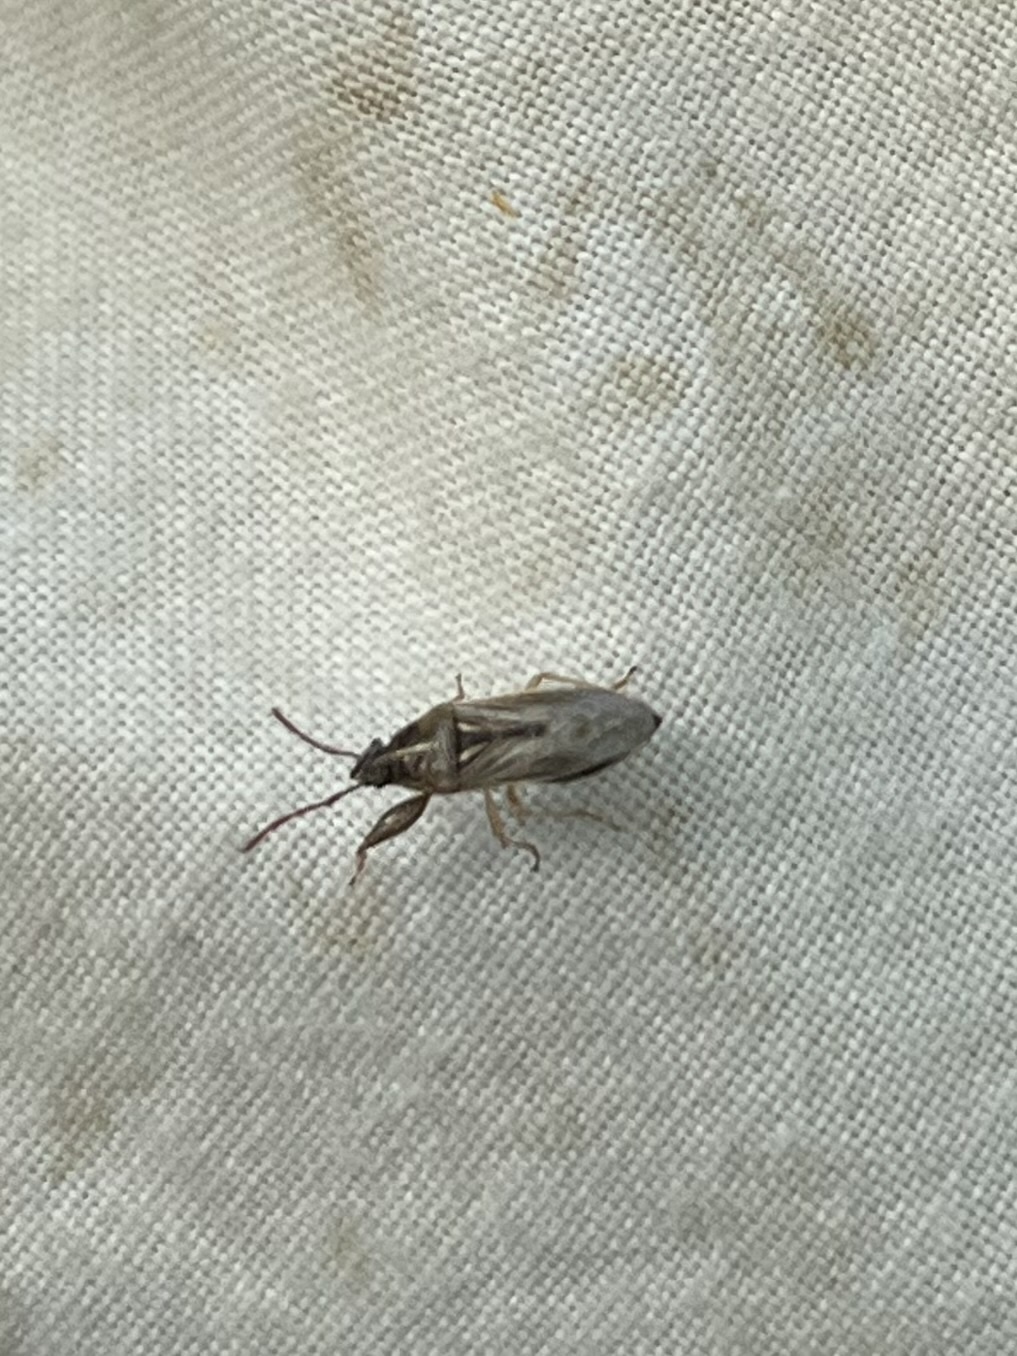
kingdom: Animalia
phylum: Arthropoda
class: Insecta
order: Hemiptera
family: Pachygronthidae
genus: Oedancala
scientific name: Oedancala dorsalis
